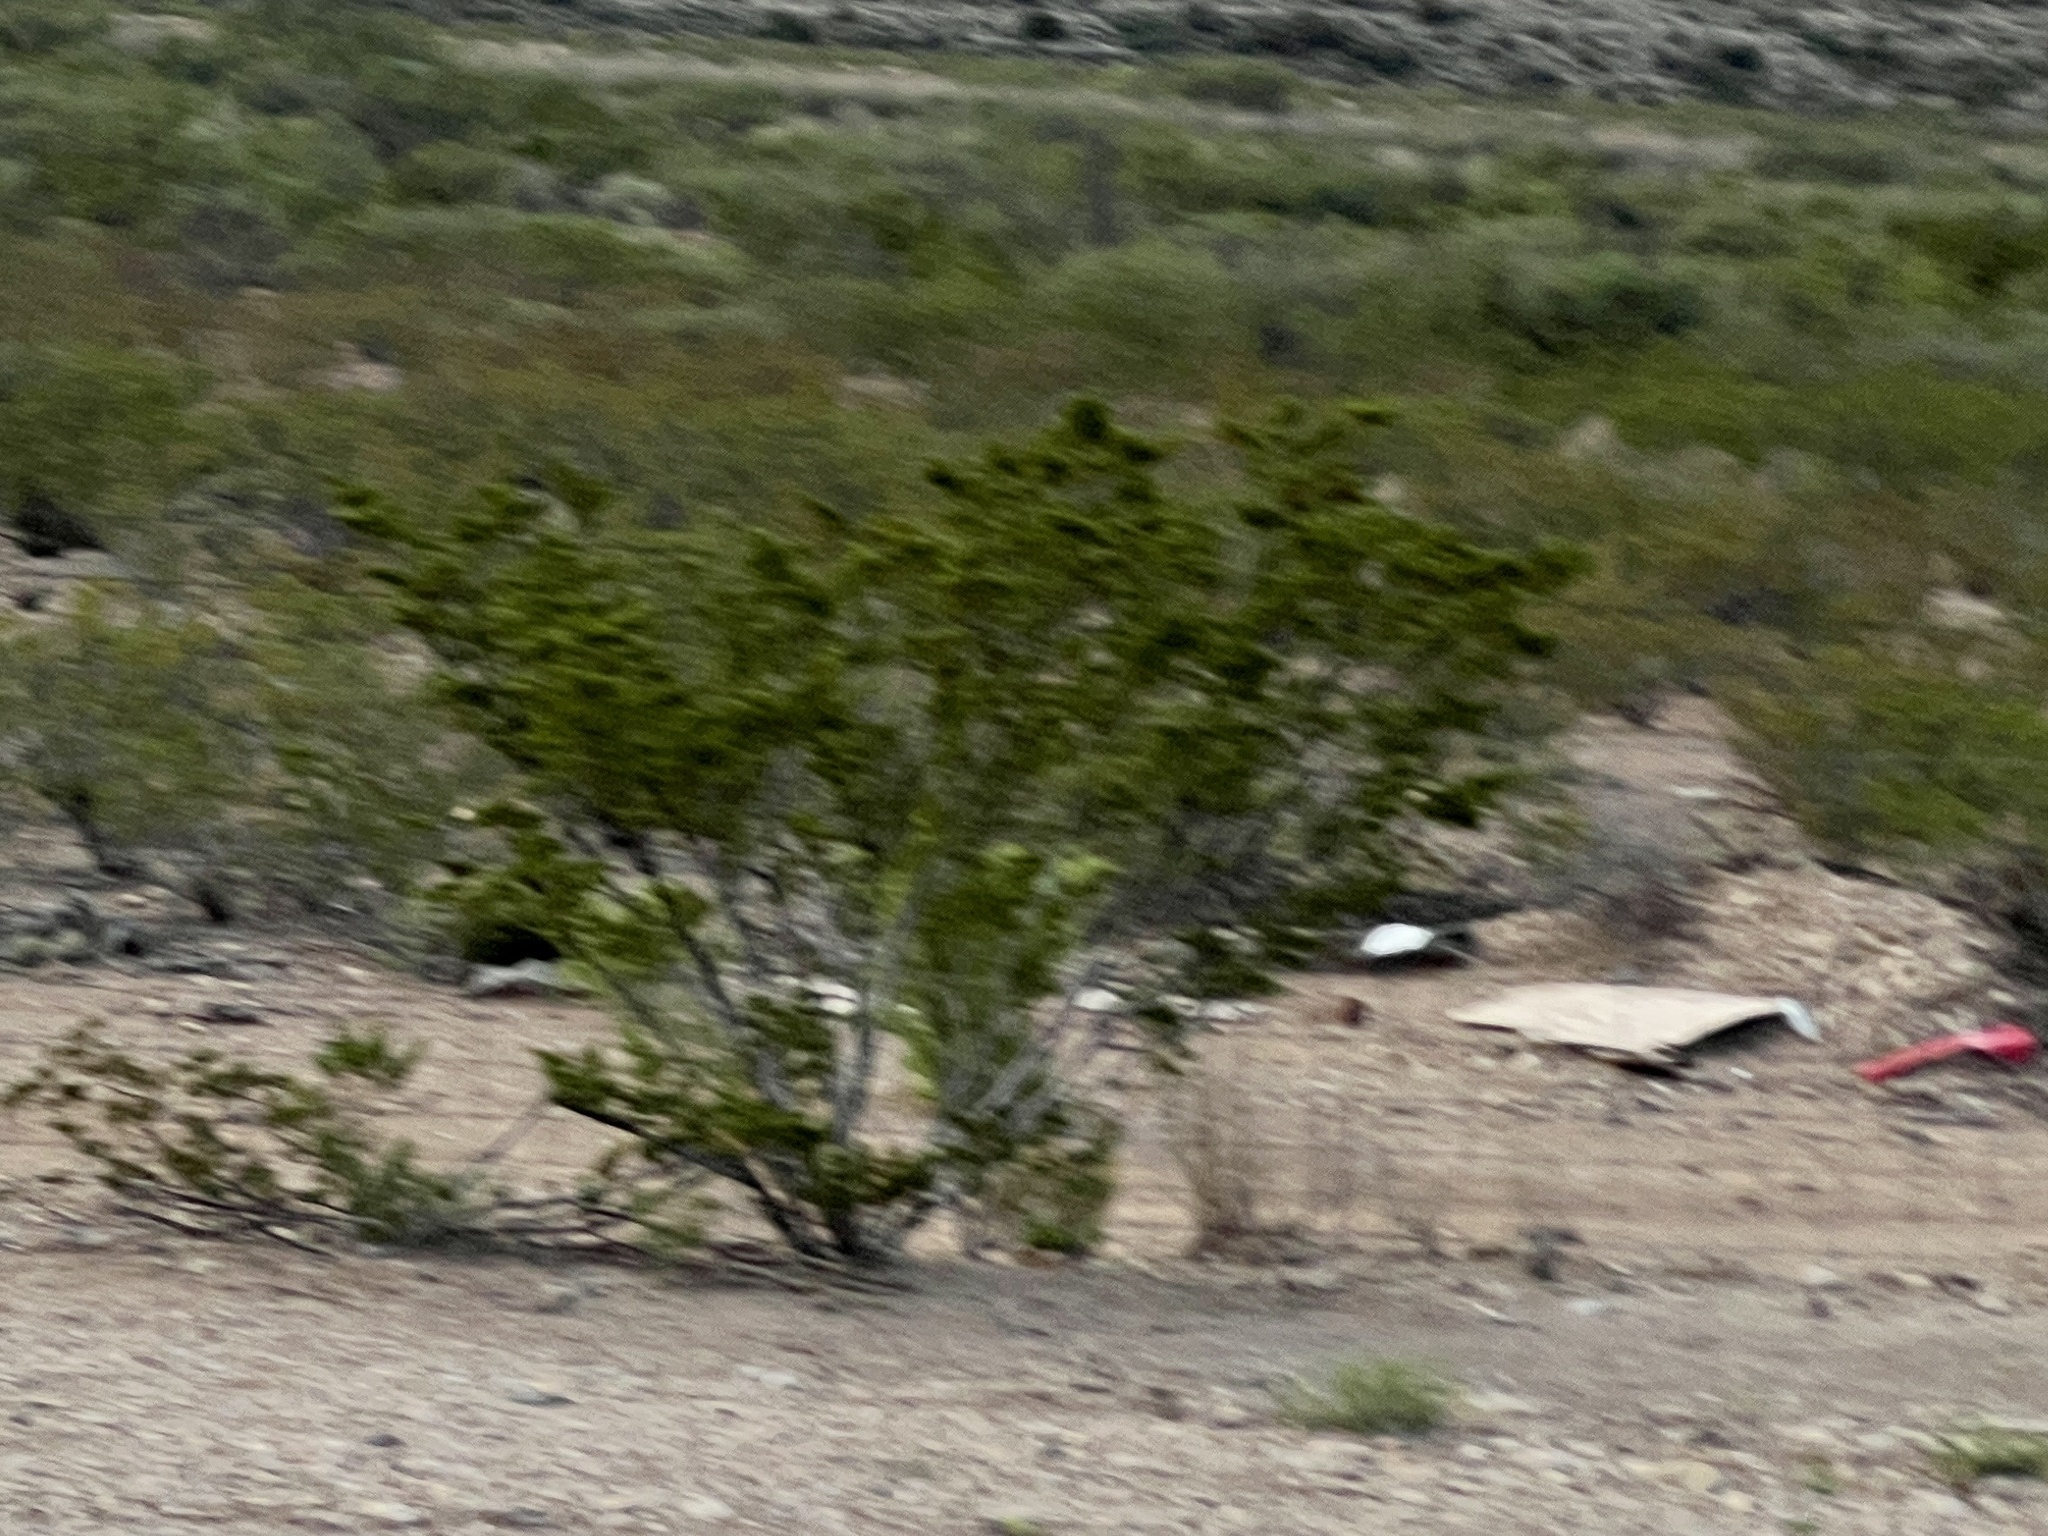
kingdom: Plantae
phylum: Tracheophyta
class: Magnoliopsida
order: Zygophyllales
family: Zygophyllaceae
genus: Larrea
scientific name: Larrea tridentata
